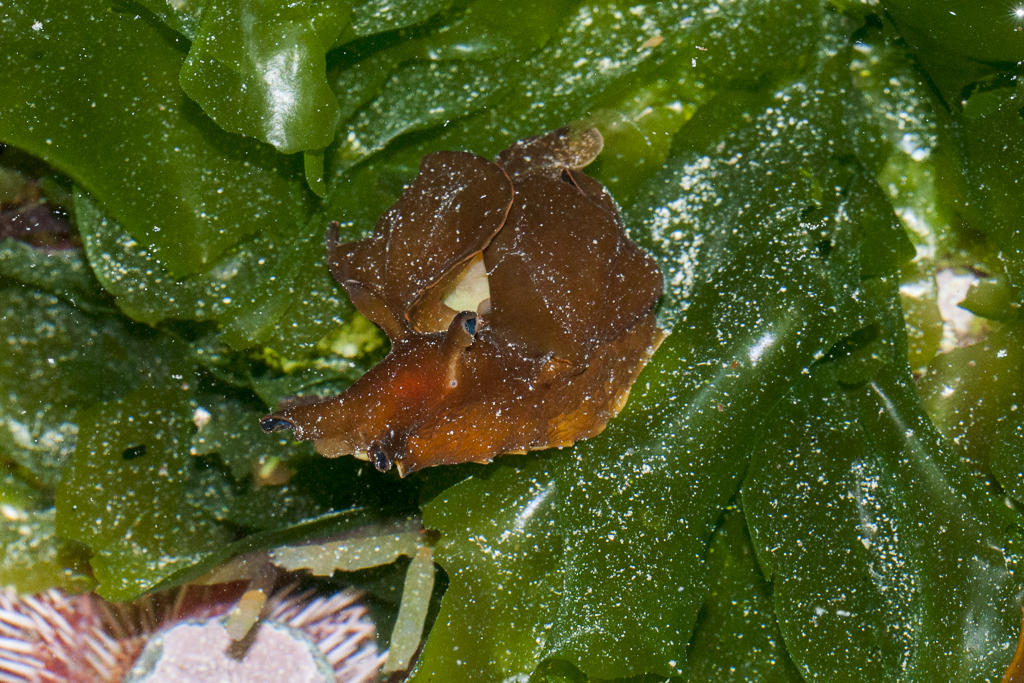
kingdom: Animalia
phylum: Mollusca
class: Gastropoda
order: Aplysiida
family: Aplysiidae
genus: Aplysia
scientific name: Aplysia parvula
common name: Dwarf sea hare
